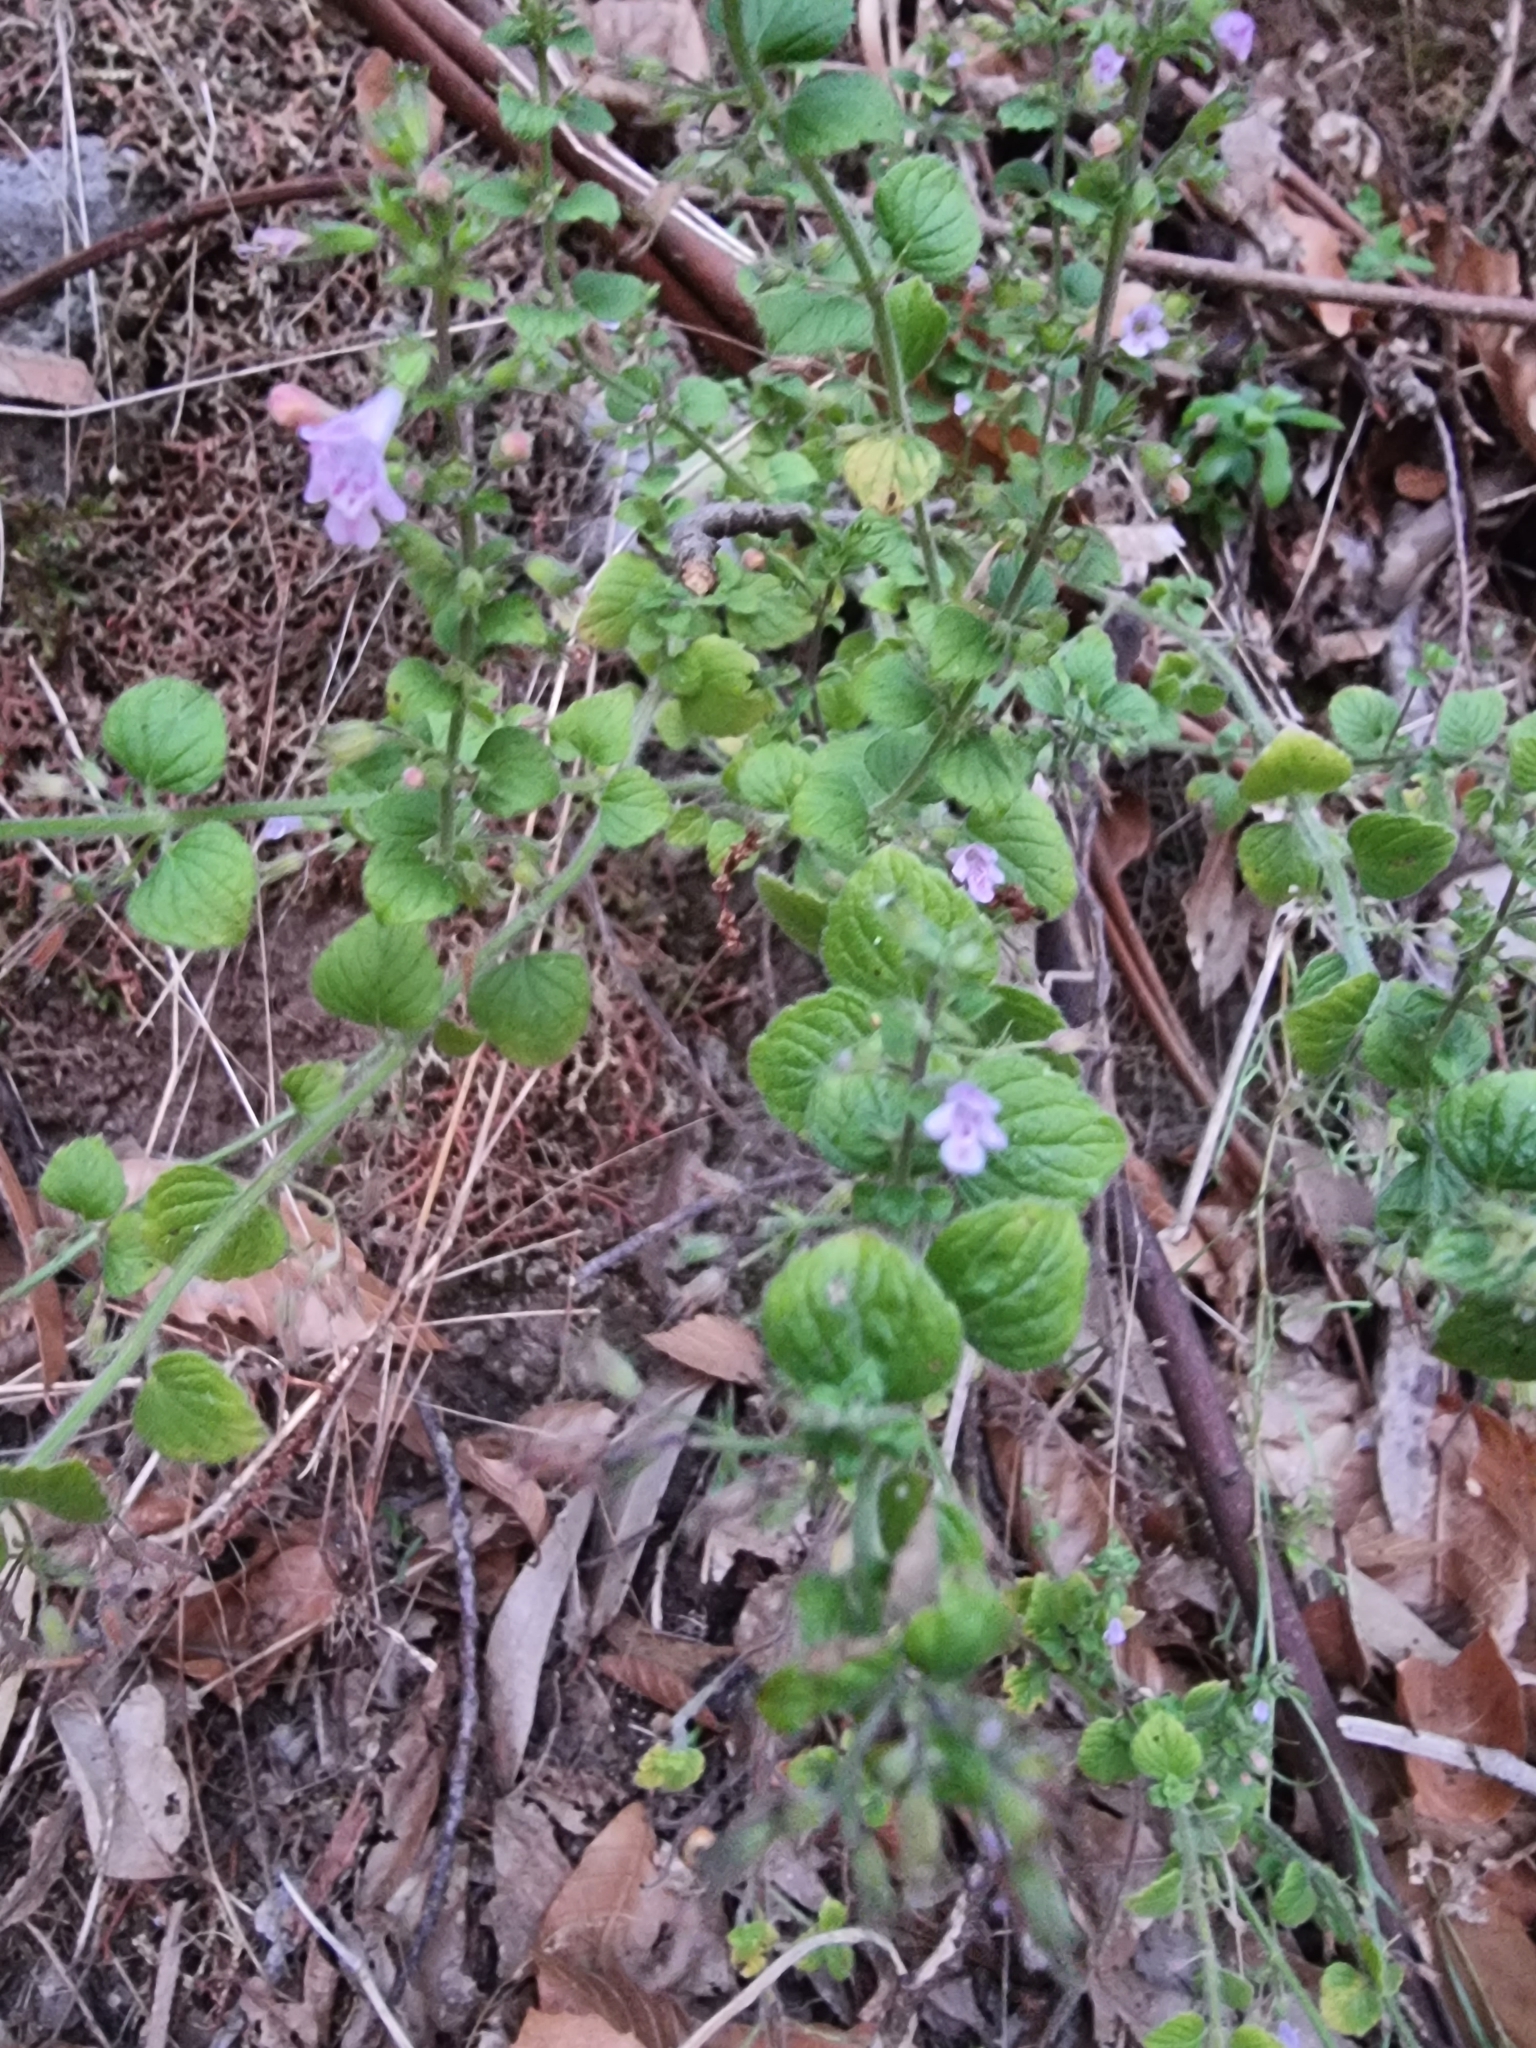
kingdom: Plantae
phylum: Tracheophyta
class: Magnoliopsida
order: Lamiales
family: Lamiaceae
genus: Clinopodium
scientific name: Clinopodium menthifolium
